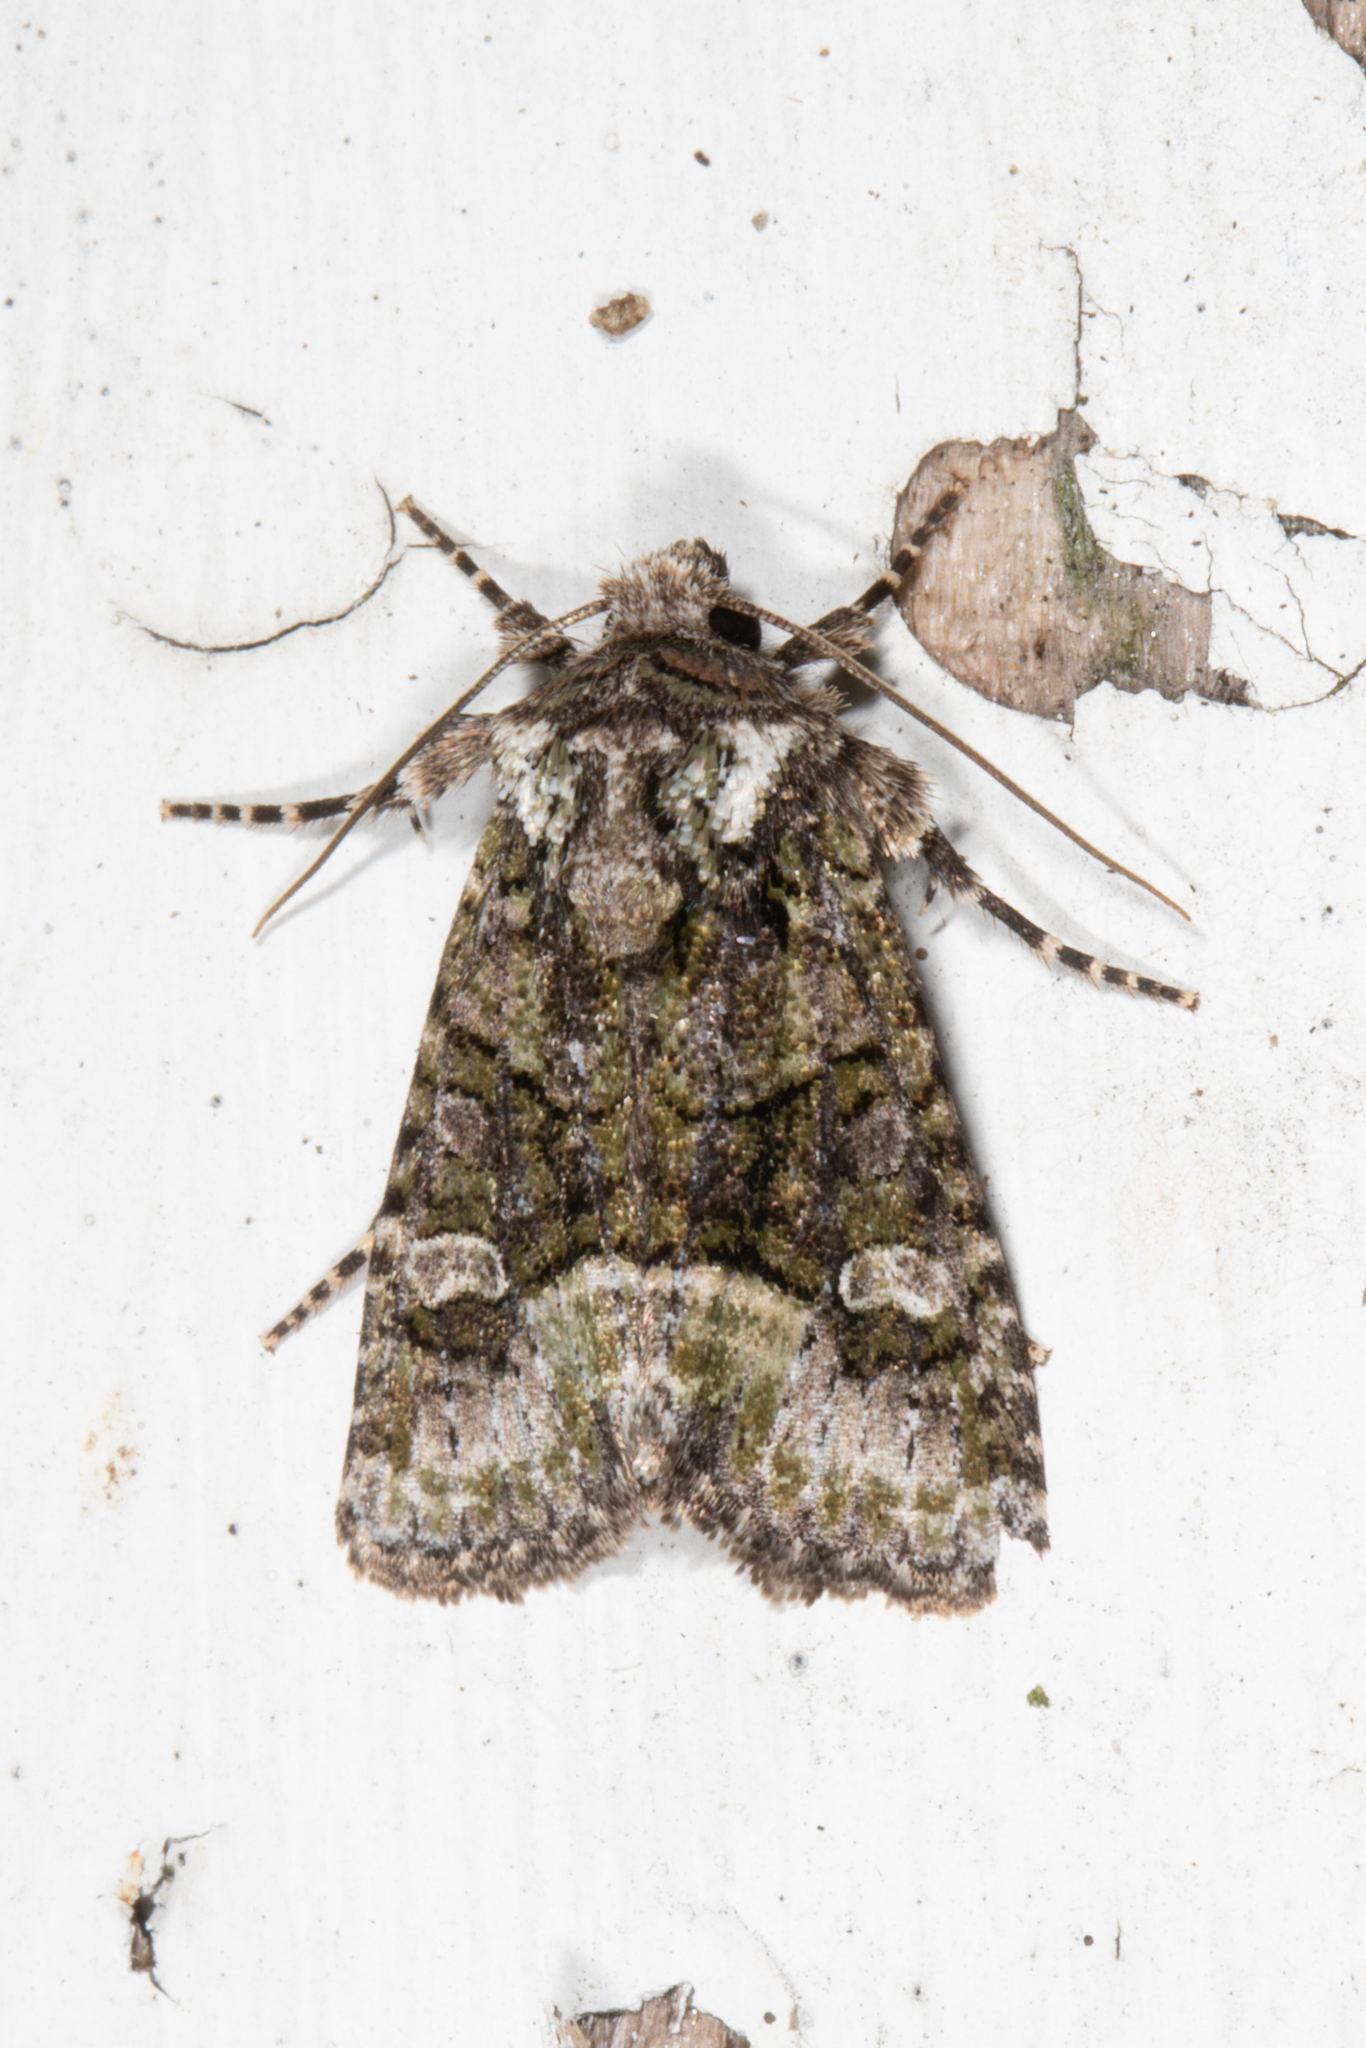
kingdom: Animalia
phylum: Arthropoda
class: Insecta
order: Lepidoptera
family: Noctuidae
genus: Lacinipolia
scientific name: Lacinipolia olivacea
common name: Olive arches moth
